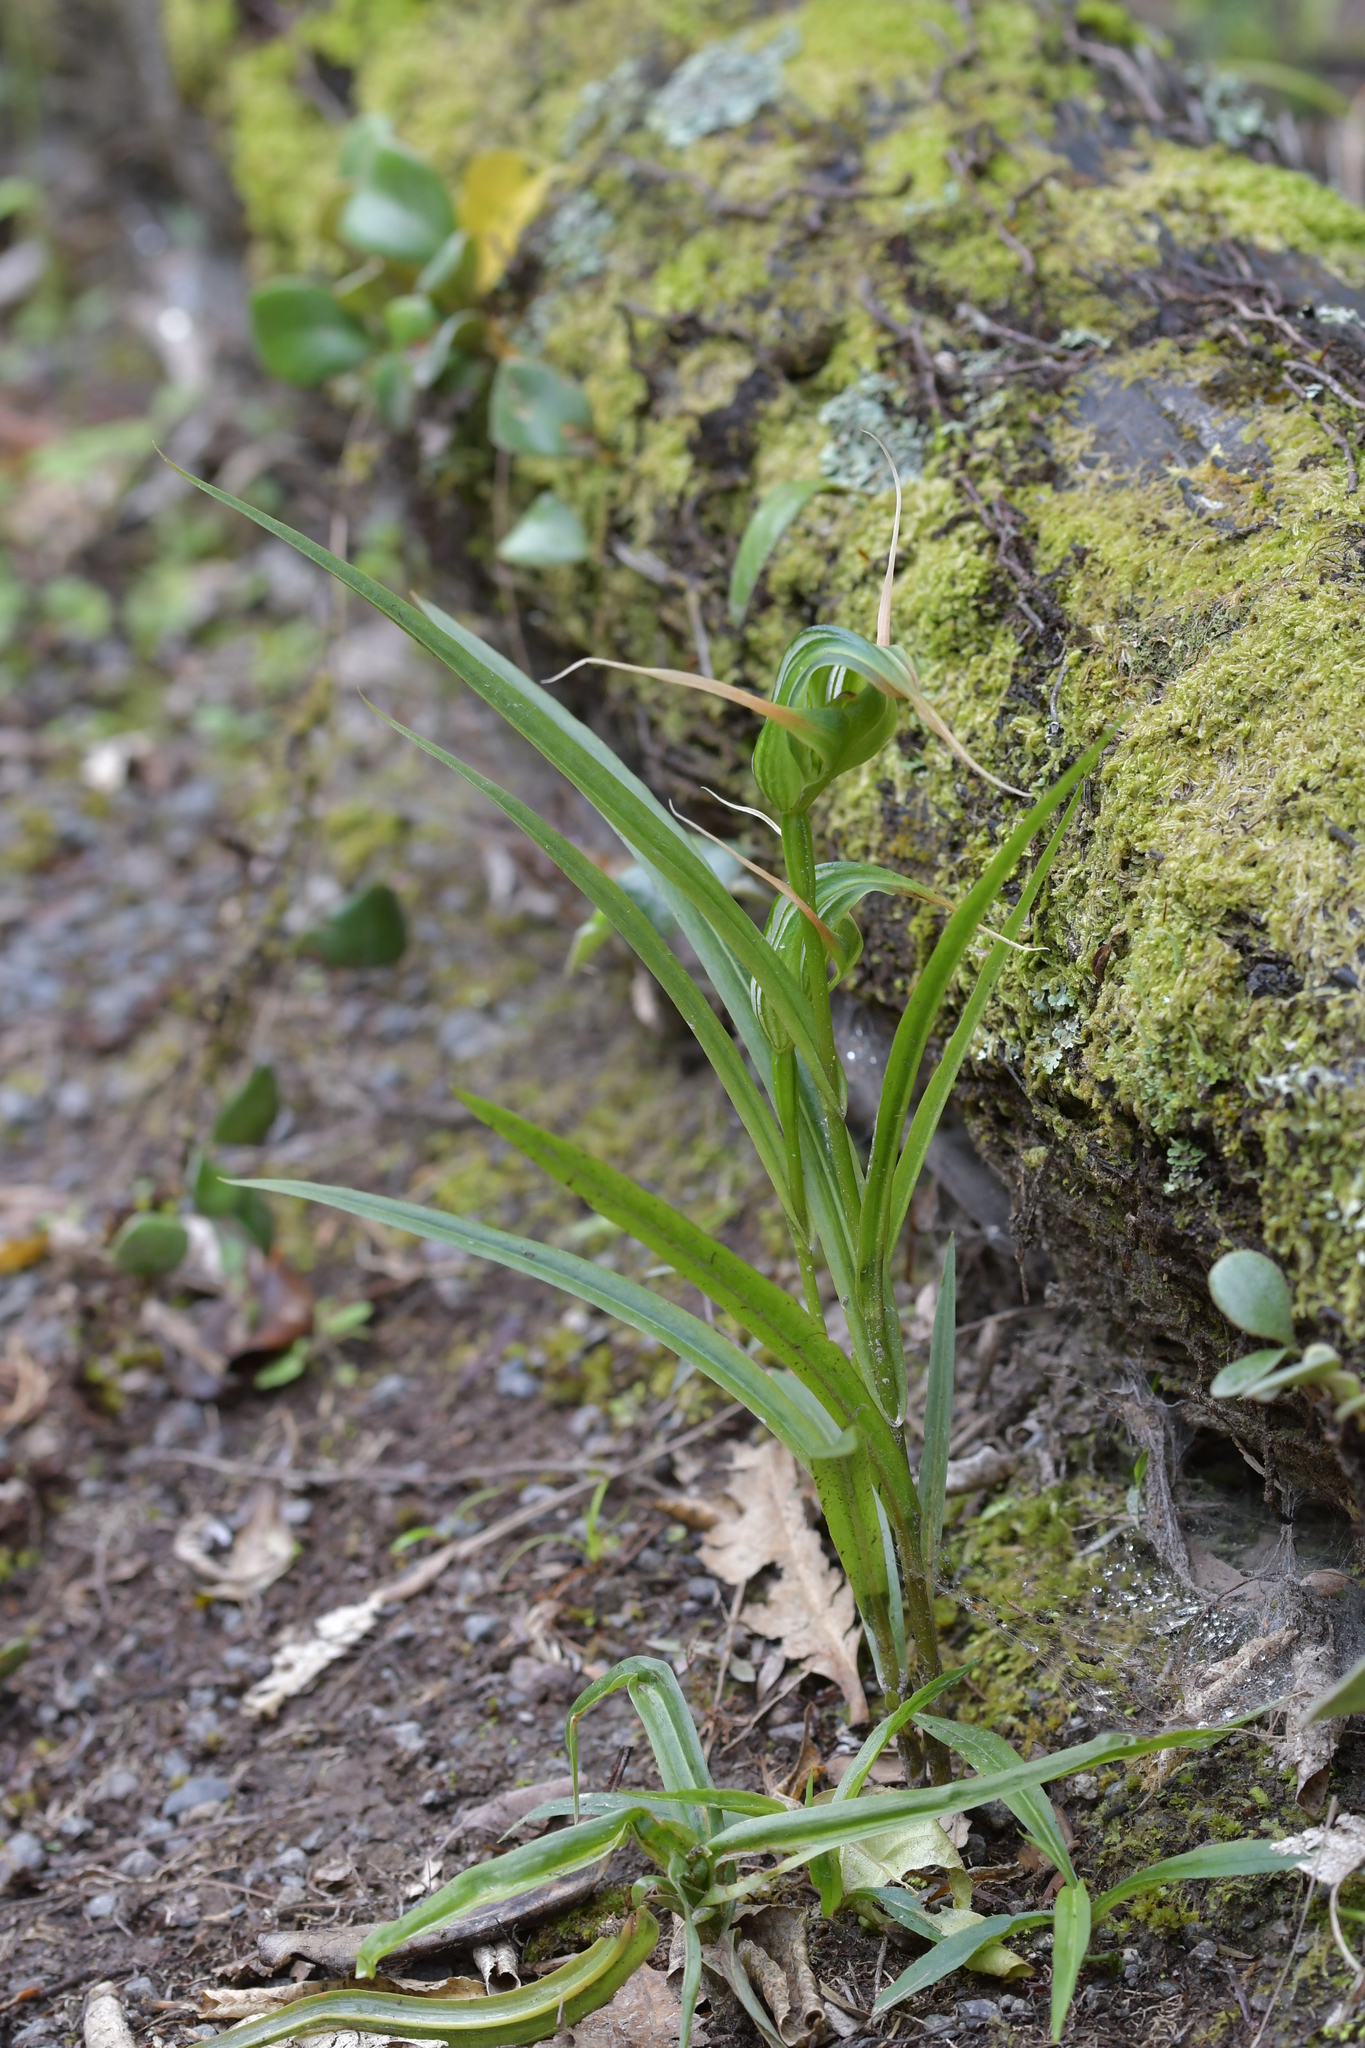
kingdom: Plantae
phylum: Tracheophyta
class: Liliopsida
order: Asparagales
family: Orchidaceae
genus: Pterostylis
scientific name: Pterostylis banksii
